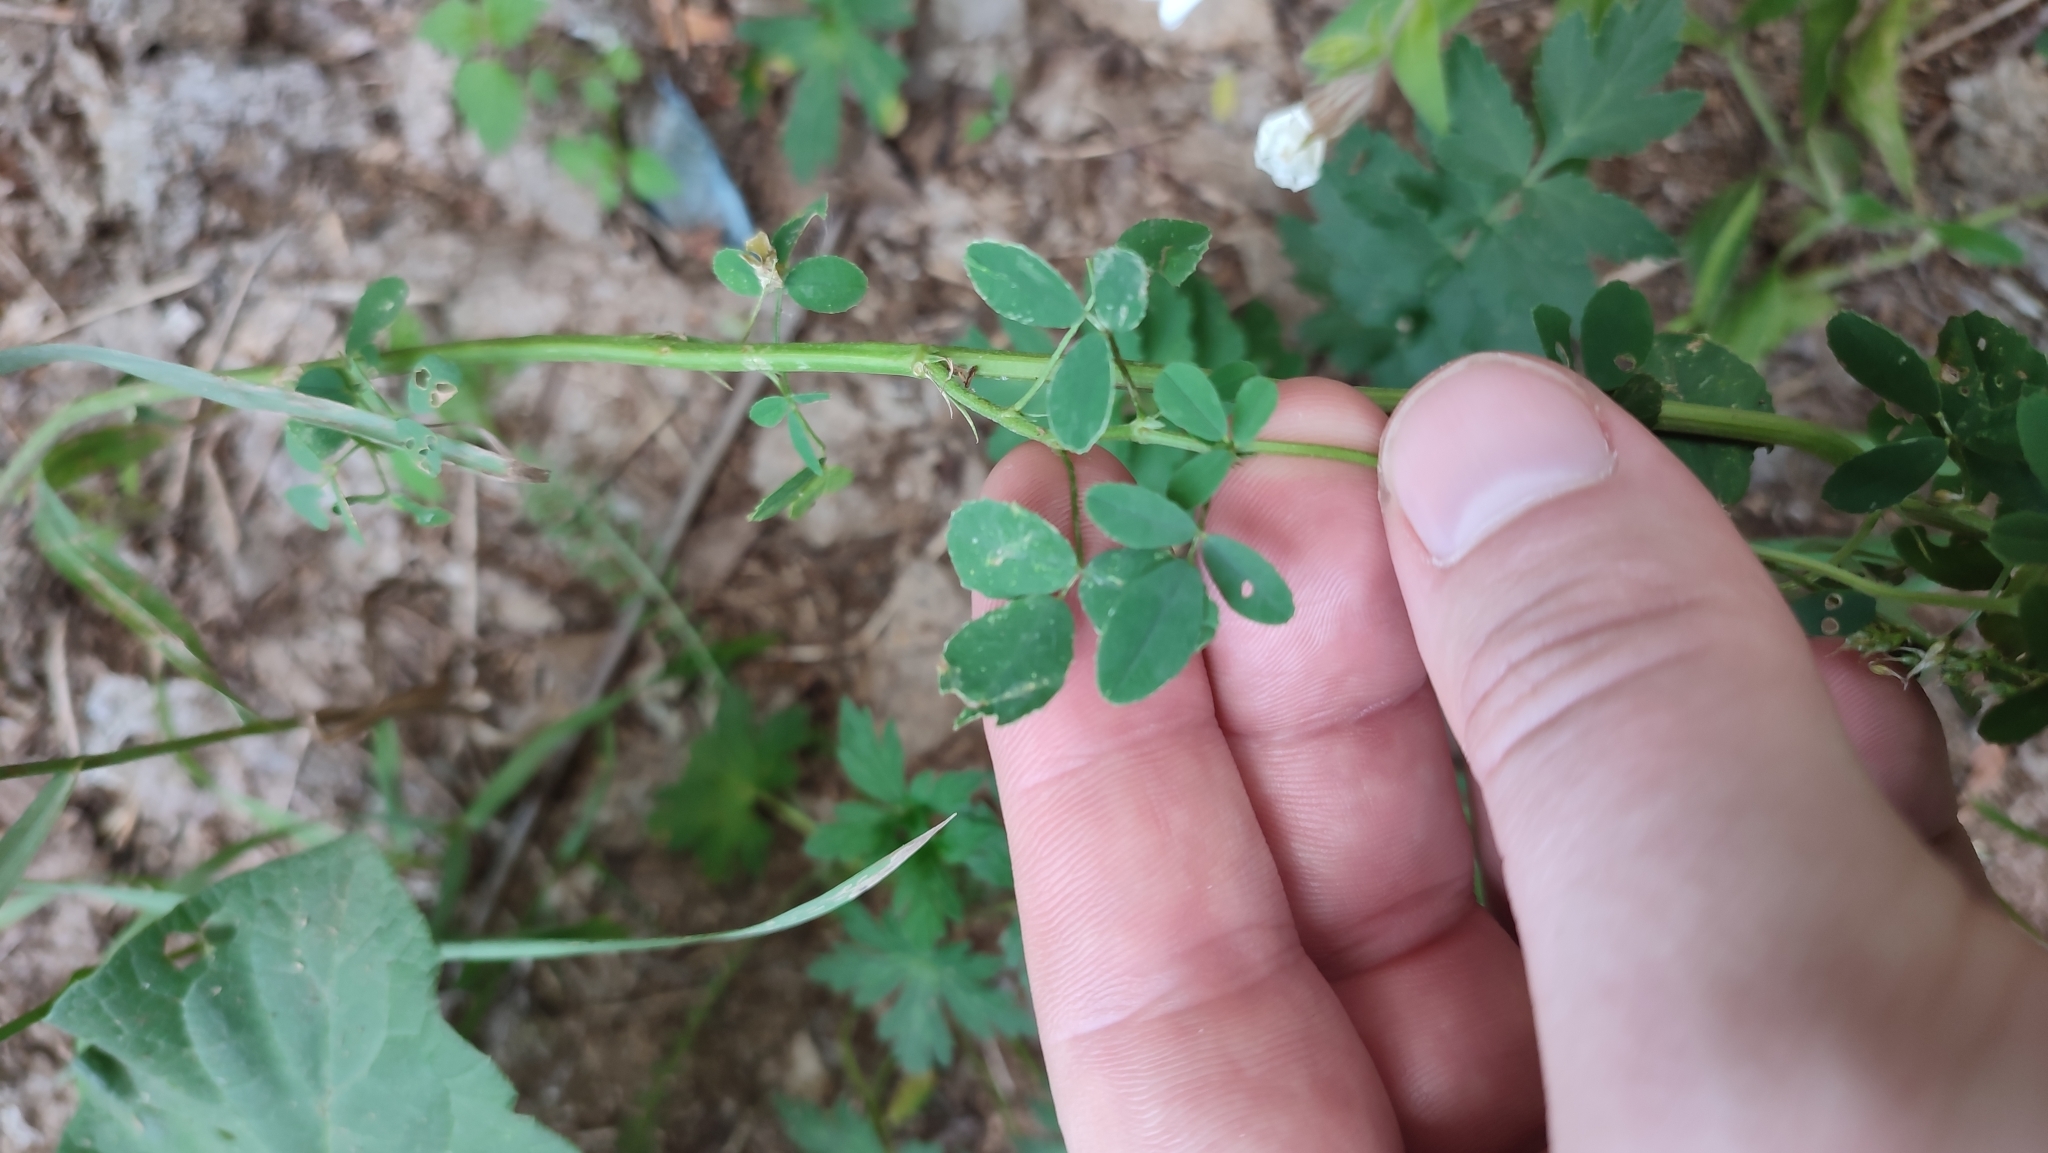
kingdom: Plantae
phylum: Tracheophyta
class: Magnoliopsida
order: Fabales
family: Fabaceae
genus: Melilotus
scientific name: Melilotus officinalis
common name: Sweetclover
